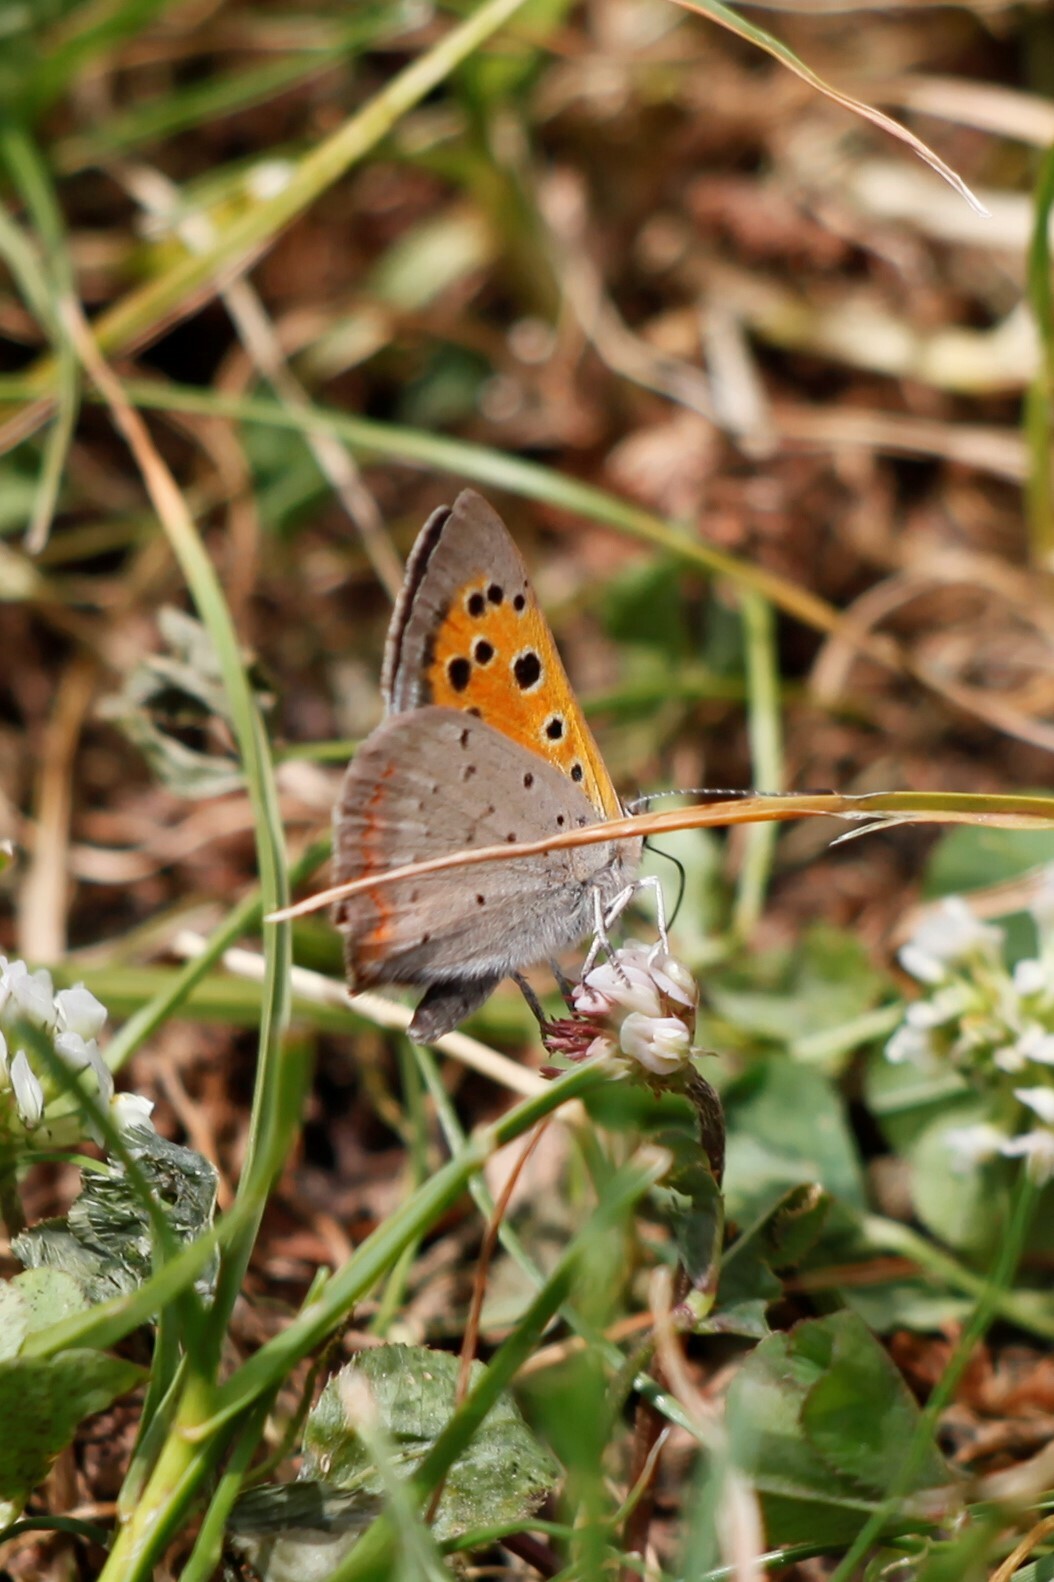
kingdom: Animalia
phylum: Arthropoda
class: Insecta
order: Lepidoptera
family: Lycaenidae
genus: Lycaena
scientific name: Lycaena phlaeas
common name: Small copper
